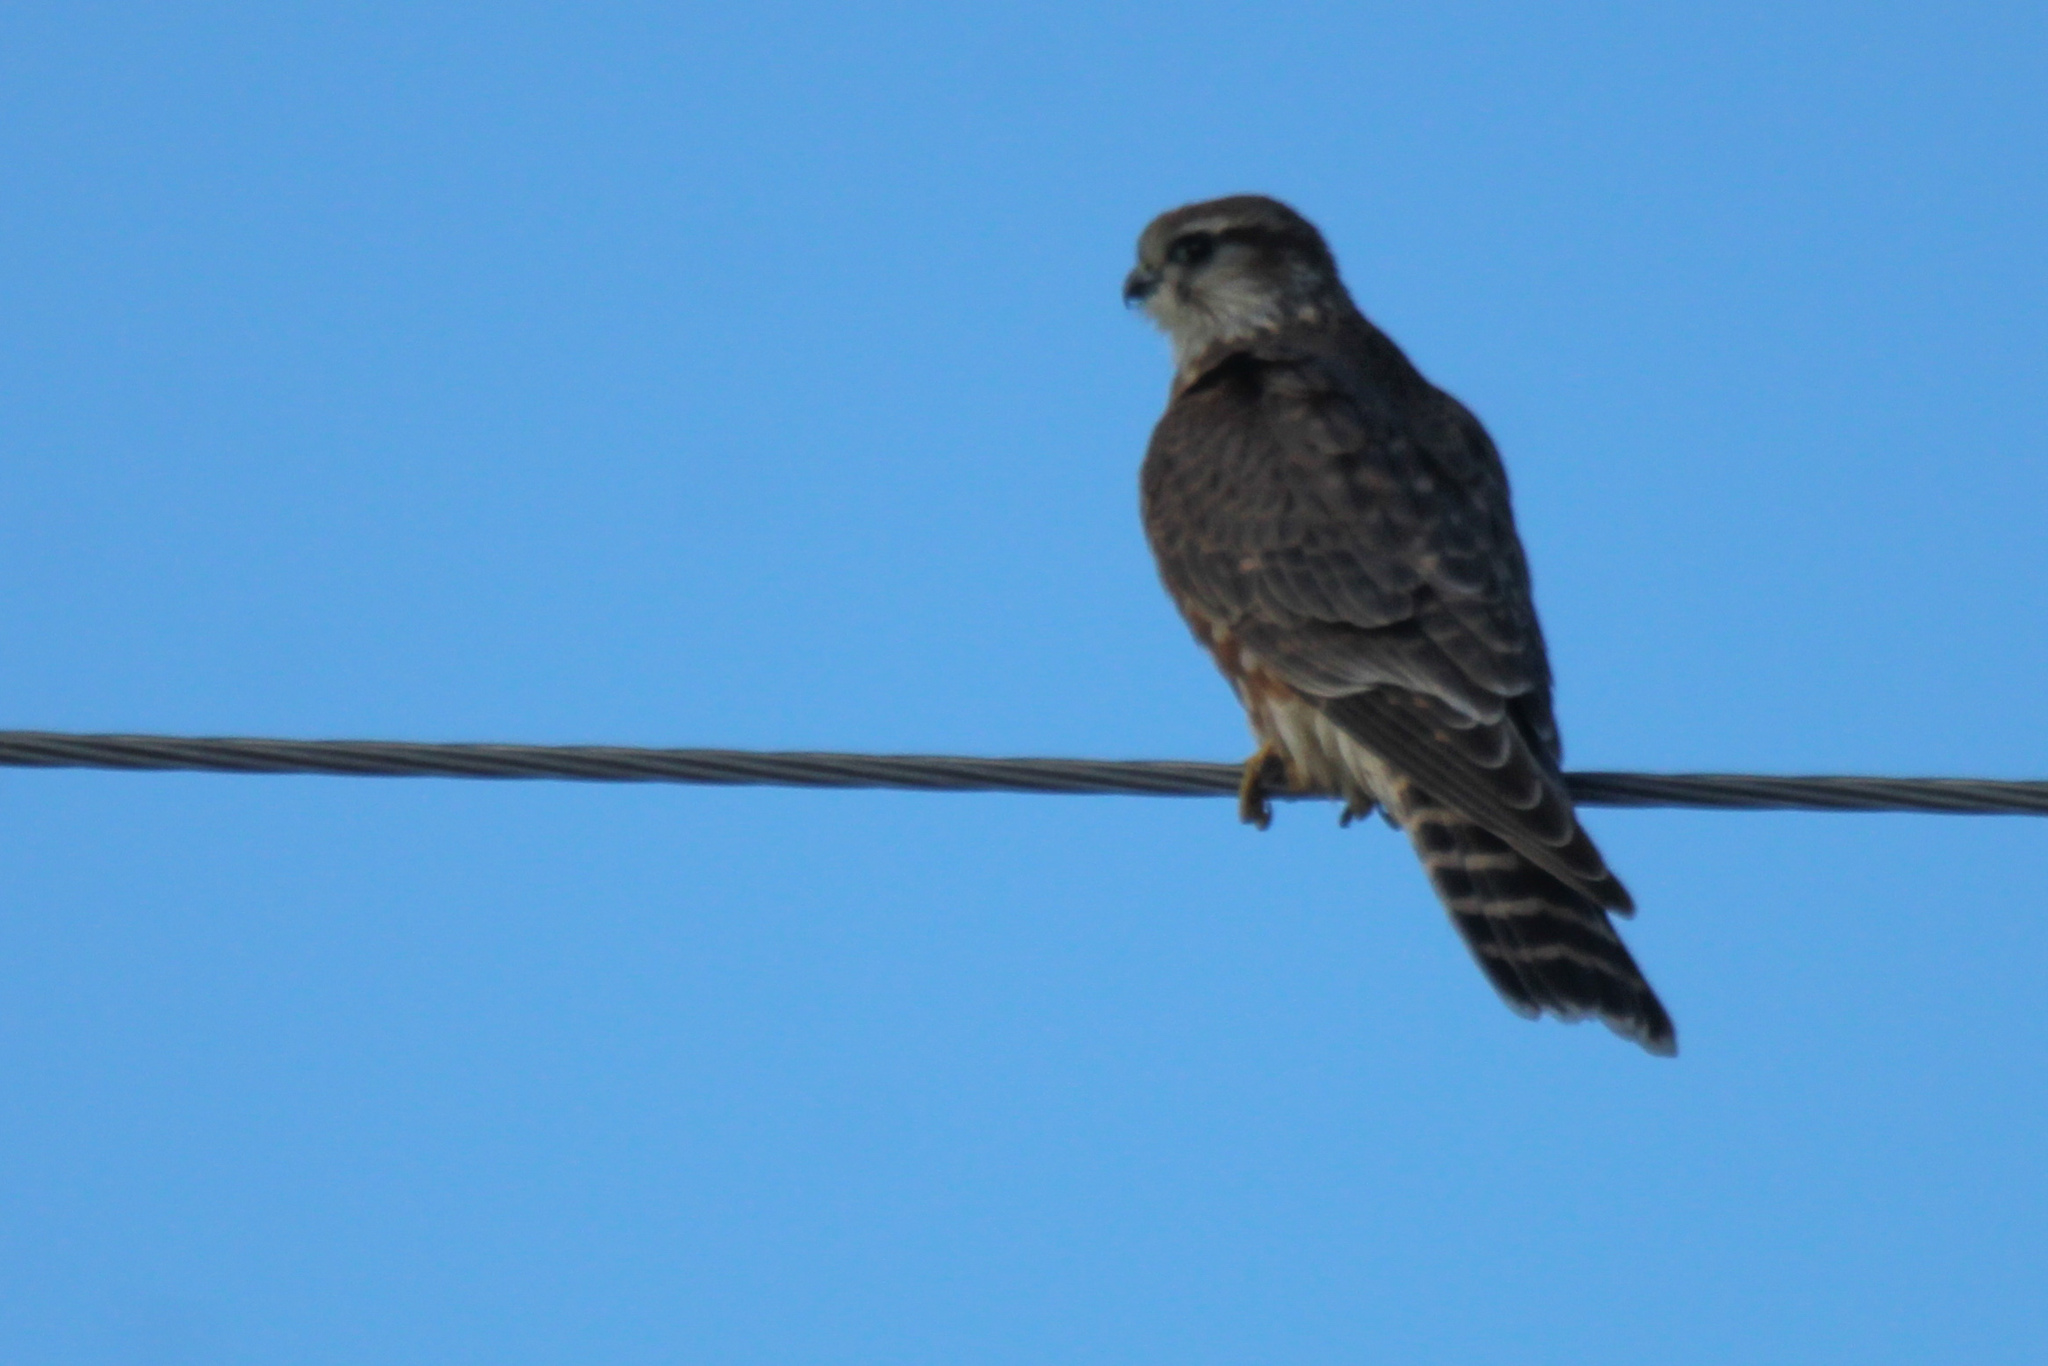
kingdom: Animalia
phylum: Chordata
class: Aves
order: Falconiformes
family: Falconidae
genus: Falco
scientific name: Falco columbarius
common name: Merlin
